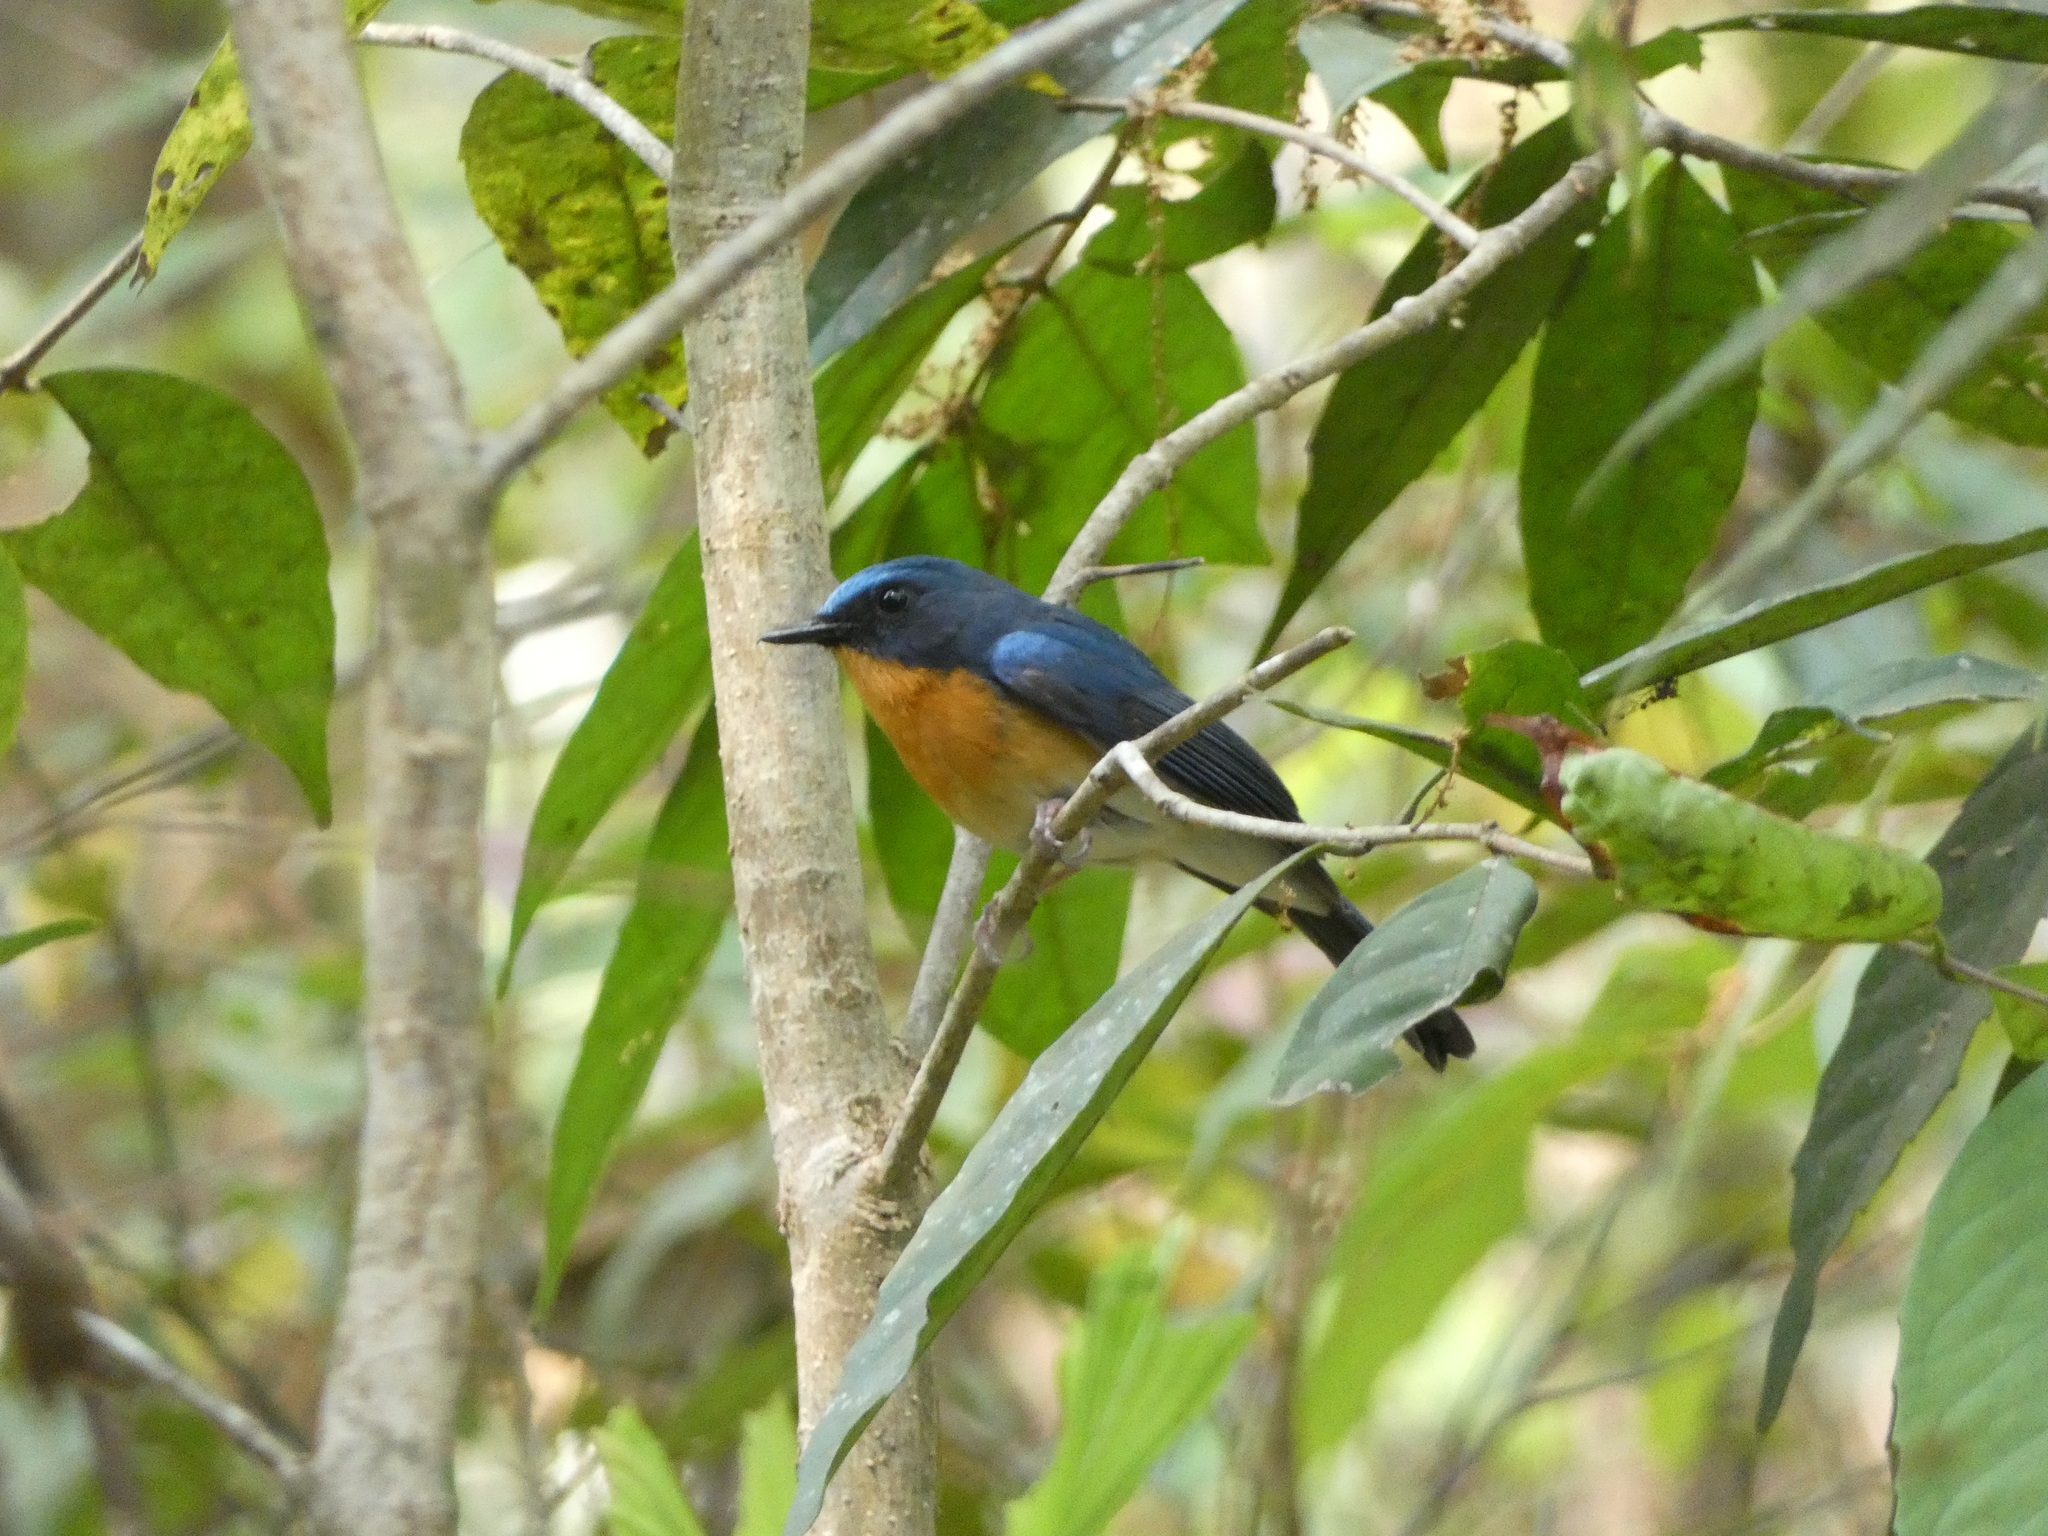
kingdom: Animalia
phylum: Chordata
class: Aves
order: Passeriformes
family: Muscicapidae
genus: Cyornis
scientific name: Cyornis whitei
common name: Hill blue flycatcher
